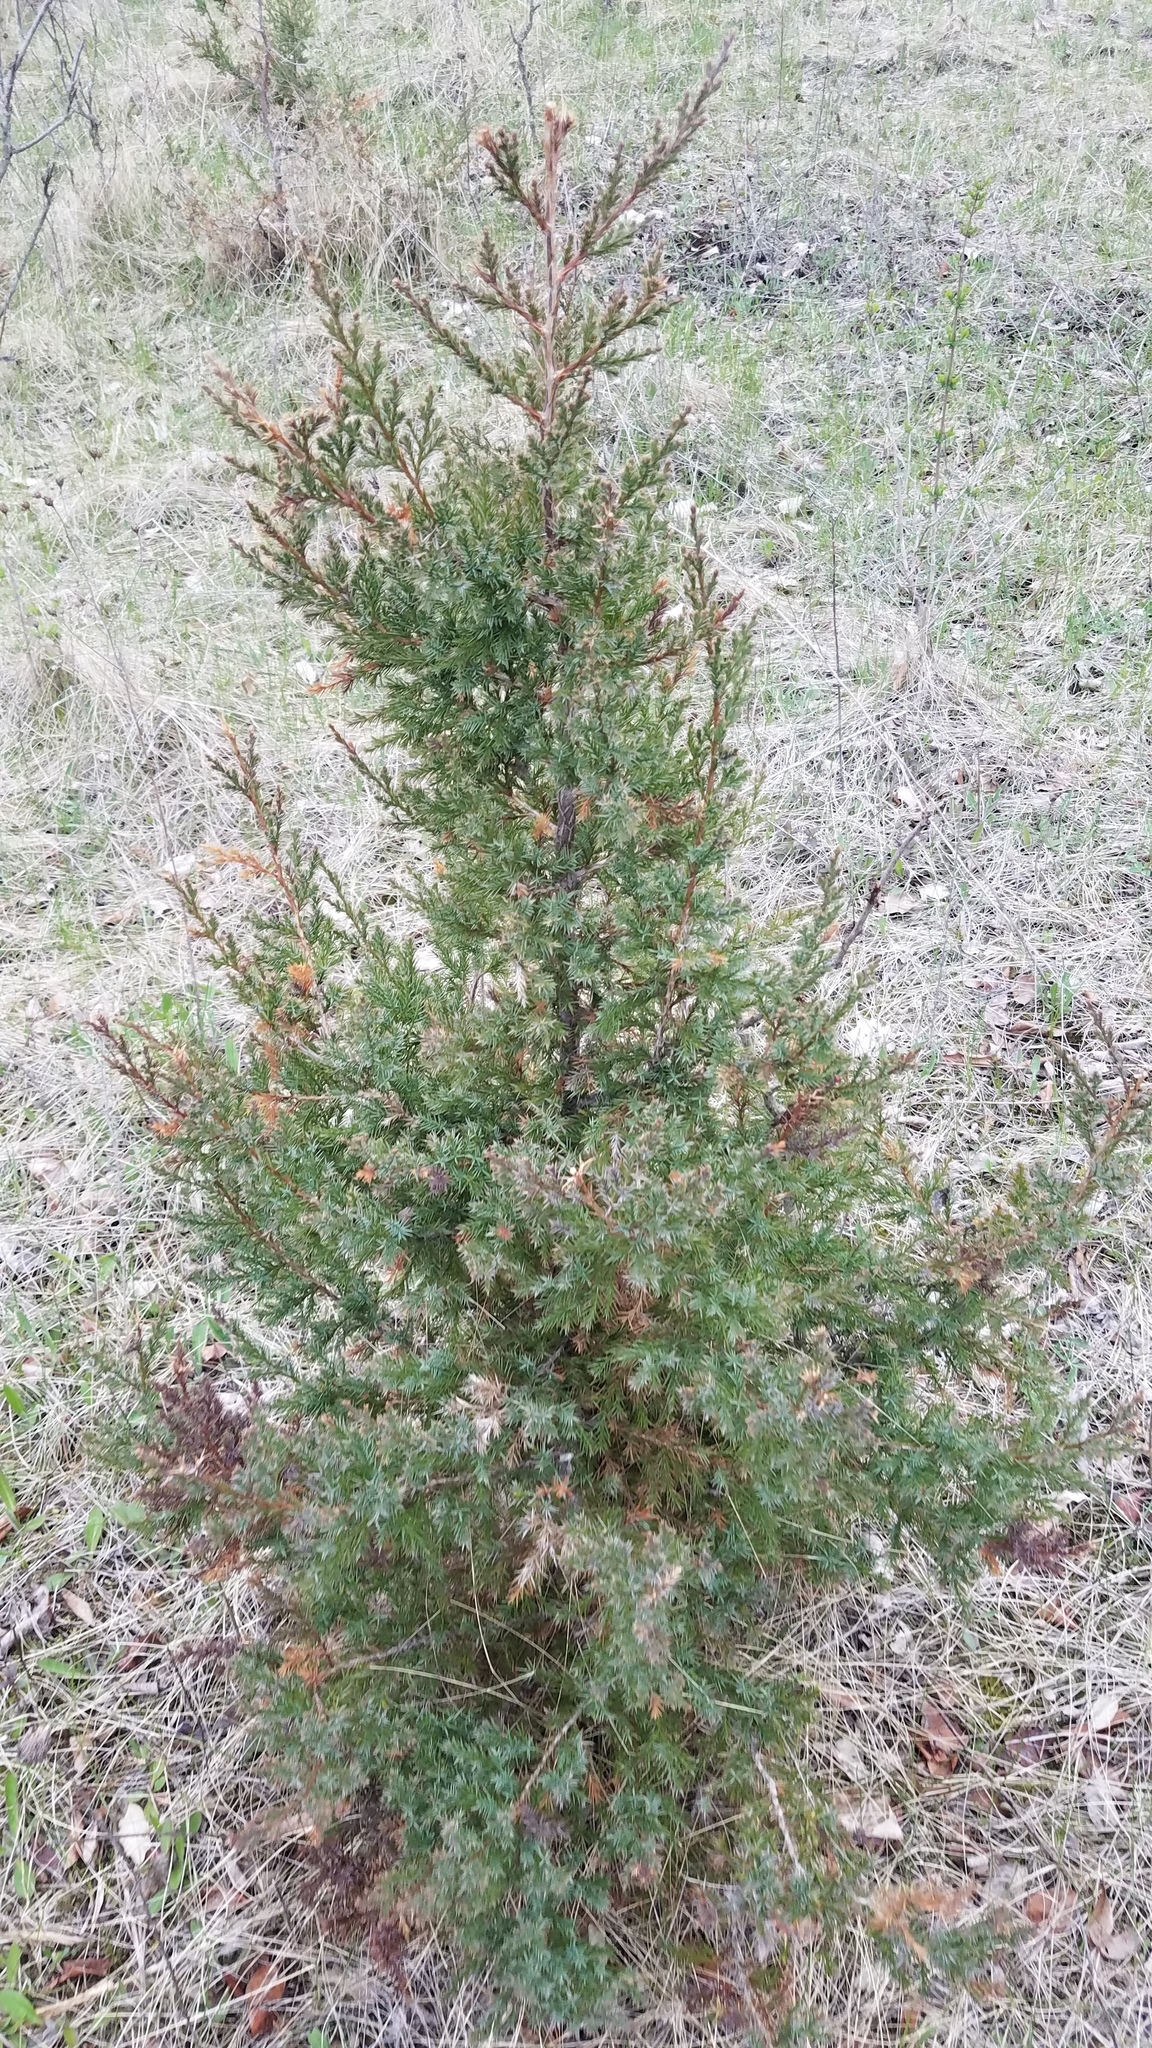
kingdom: Plantae
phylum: Tracheophyta
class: Pinopsida
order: Pinales
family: Cupressaceae
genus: Juniperus
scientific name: Juniperus virginiana
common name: Red juniper
